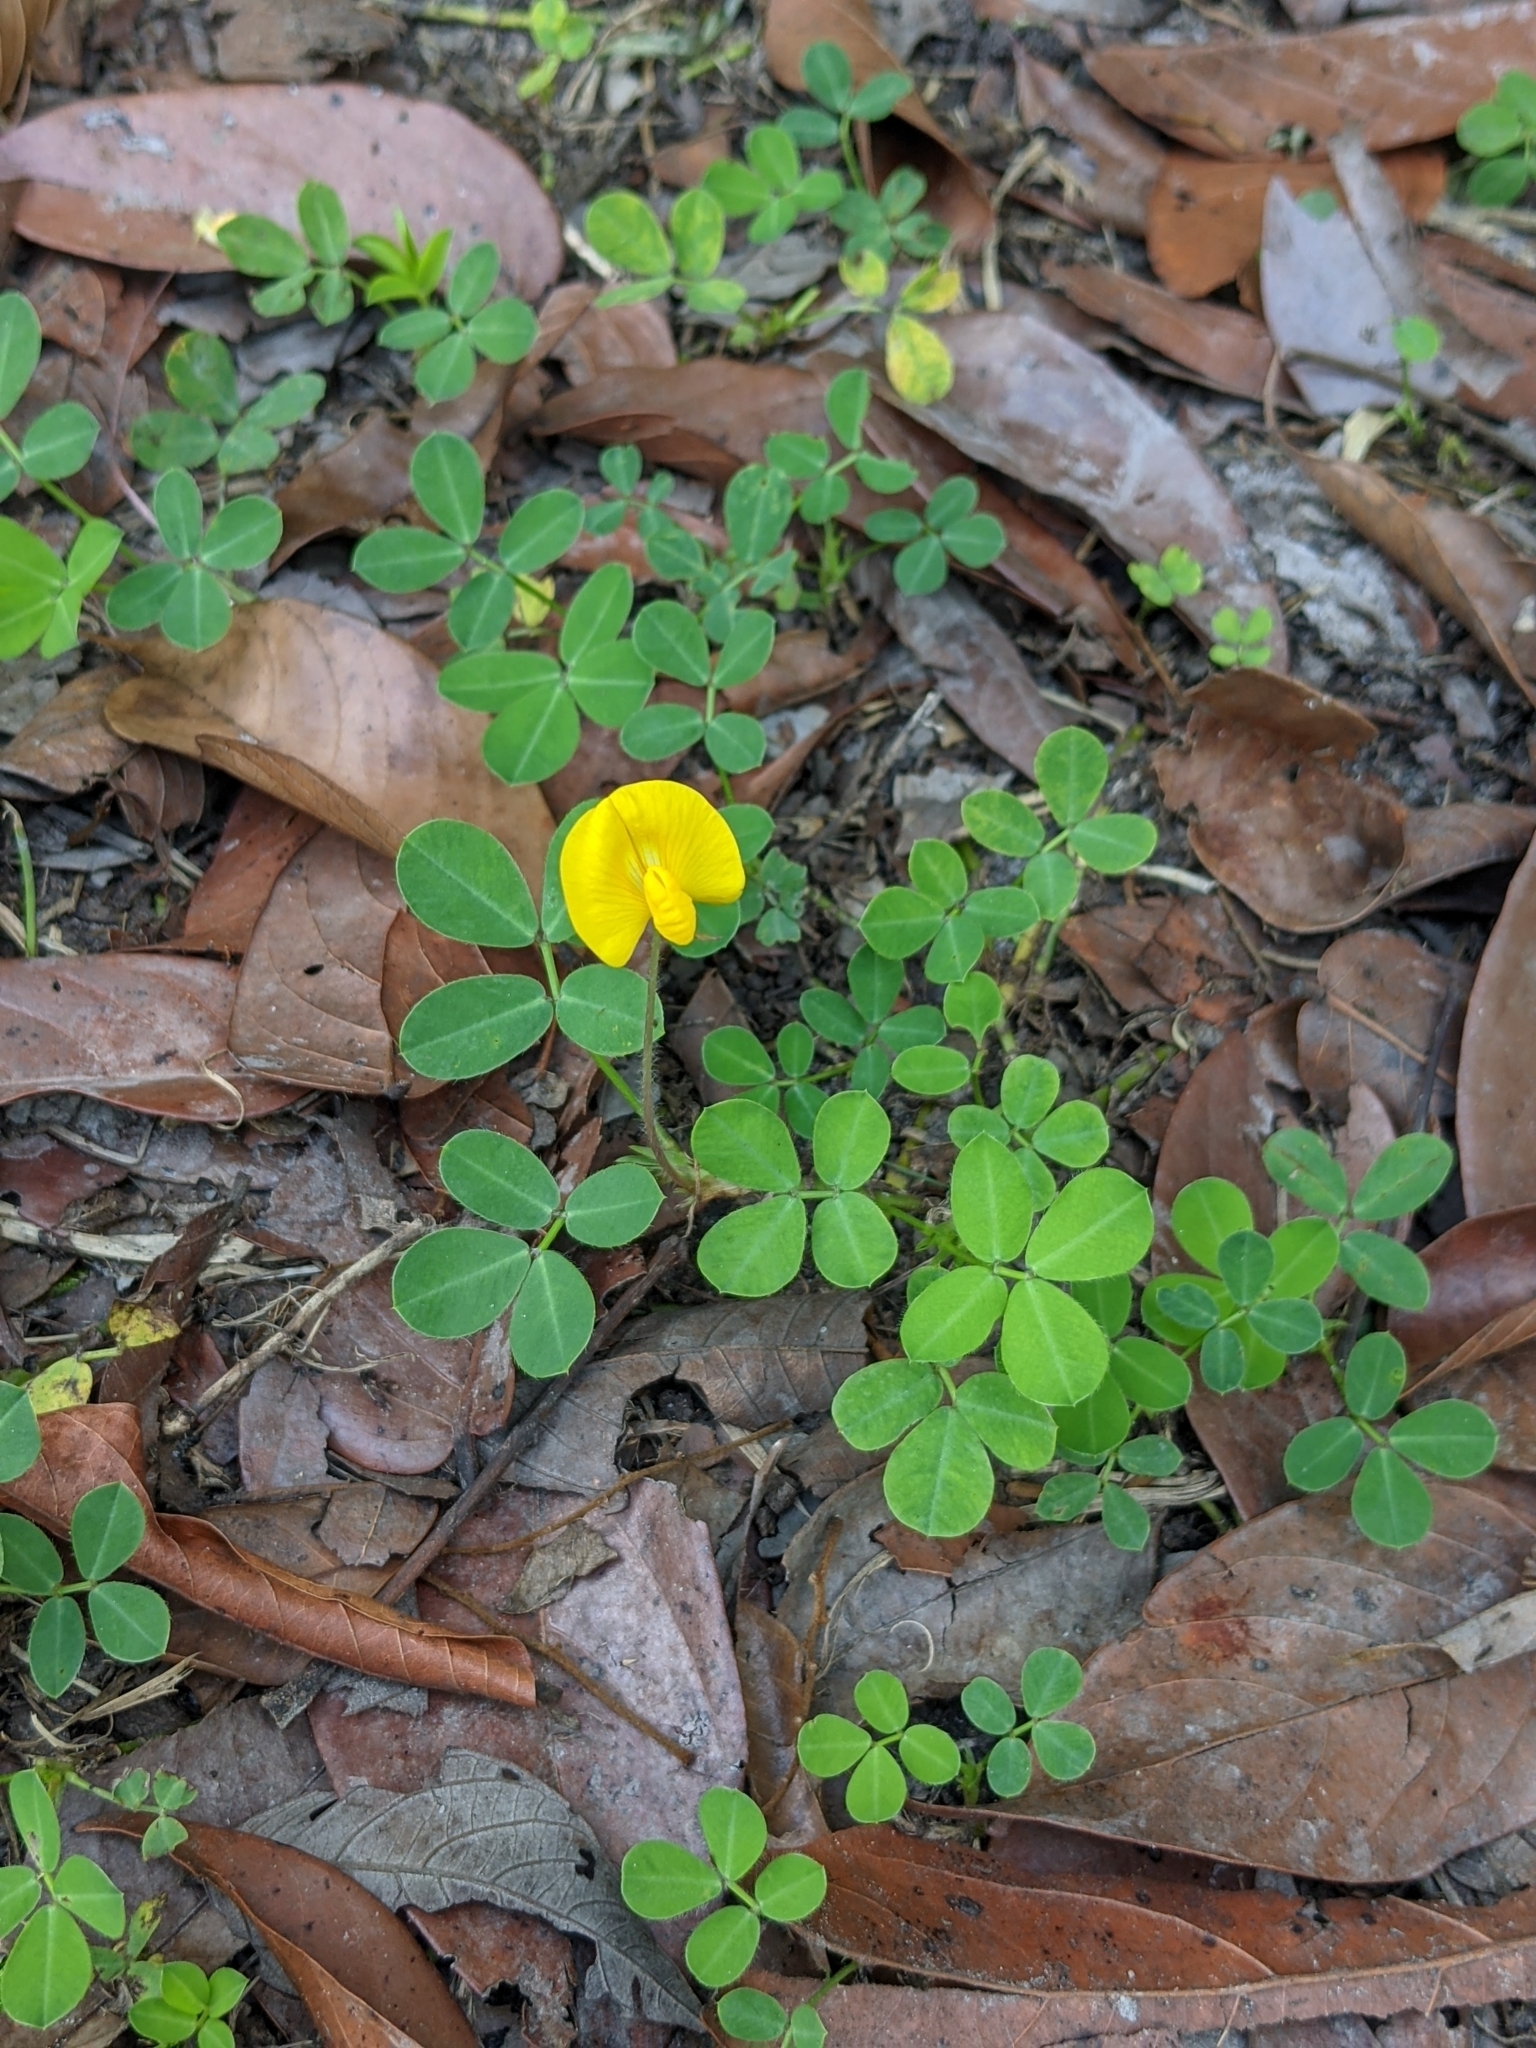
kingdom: Plantae
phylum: Tracheophyta
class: Magnoliopsida
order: Fabales
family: Fabaceae
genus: Arachis
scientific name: Arachis pintoi
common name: Pinto peanut
